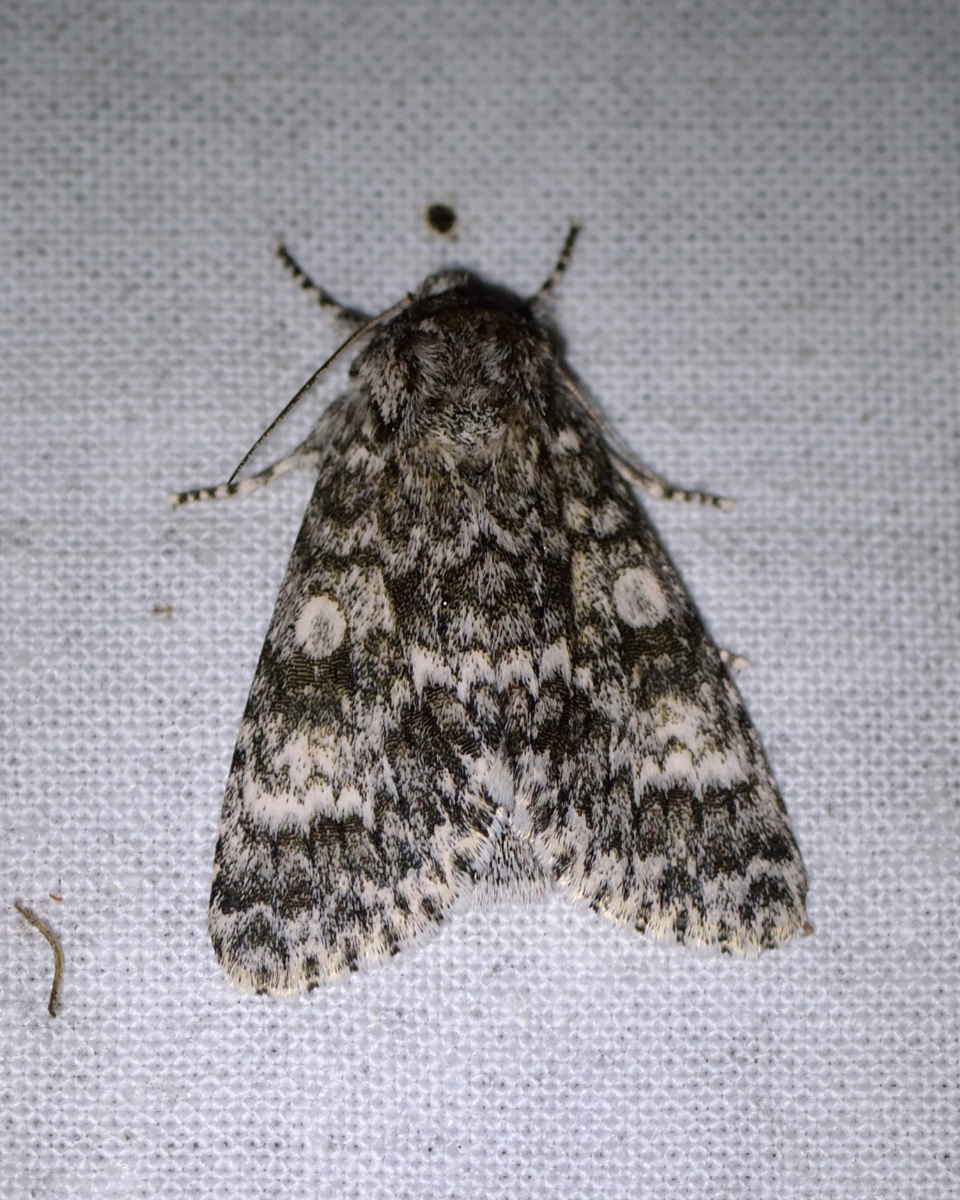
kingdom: Animalia
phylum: Arthropoda
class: Insecta
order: Lepidoptera
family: Noctuidae
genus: Acronicta
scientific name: Acronicta megacephala
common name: Poplar grey
